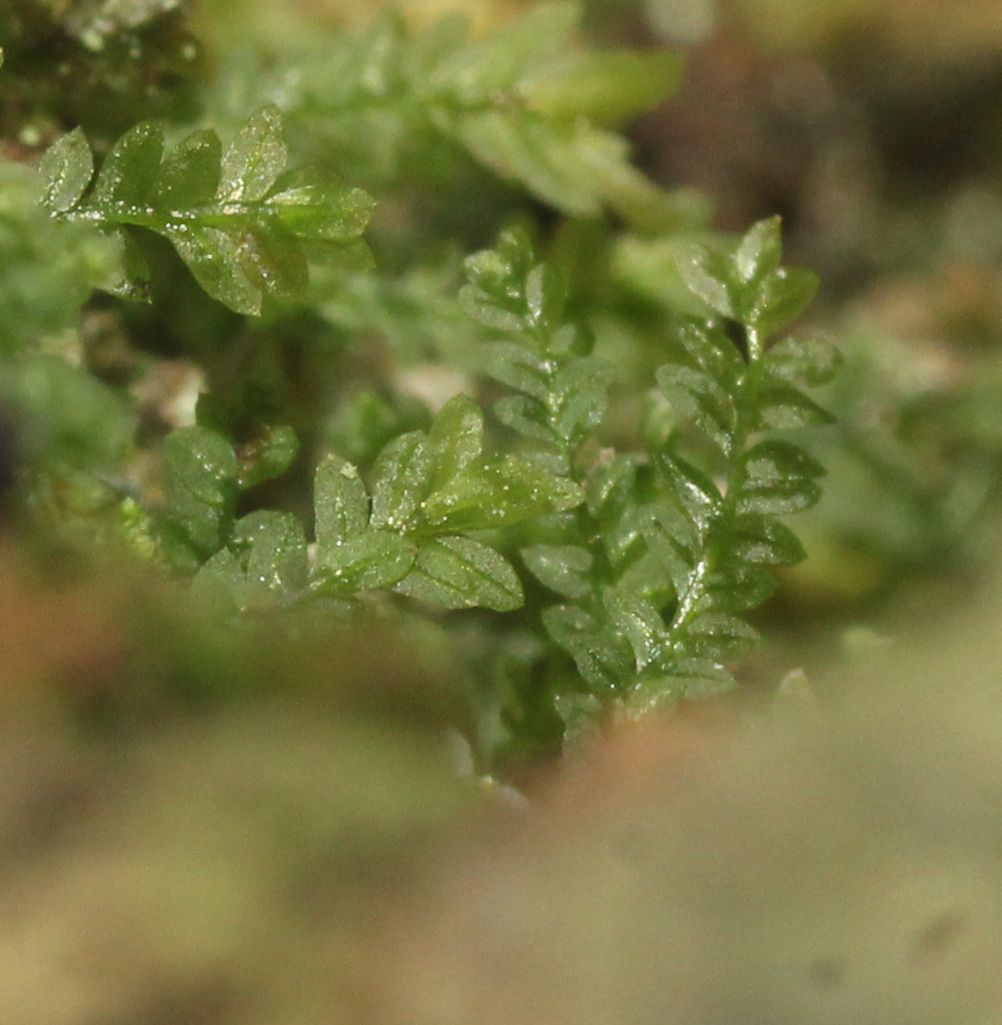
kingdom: Plantae
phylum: Bryophyta
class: Bryopsida
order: Pottiales
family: Mitteniaceae
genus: Mittenia
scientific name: Mittenia plumula
